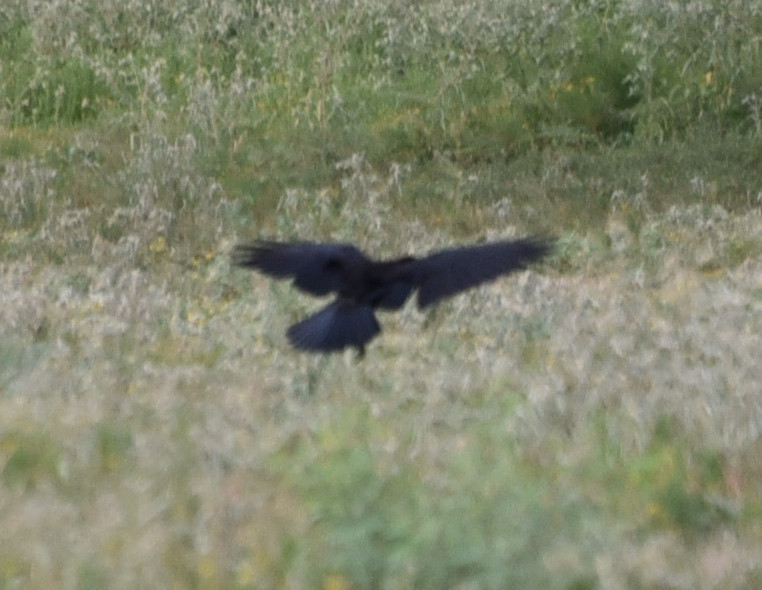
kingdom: Animalia
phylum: Chordata
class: Aves
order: Passeriformes
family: Corvidae
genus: Corvus
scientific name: Corvus brachyrhynchos
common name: American crow
